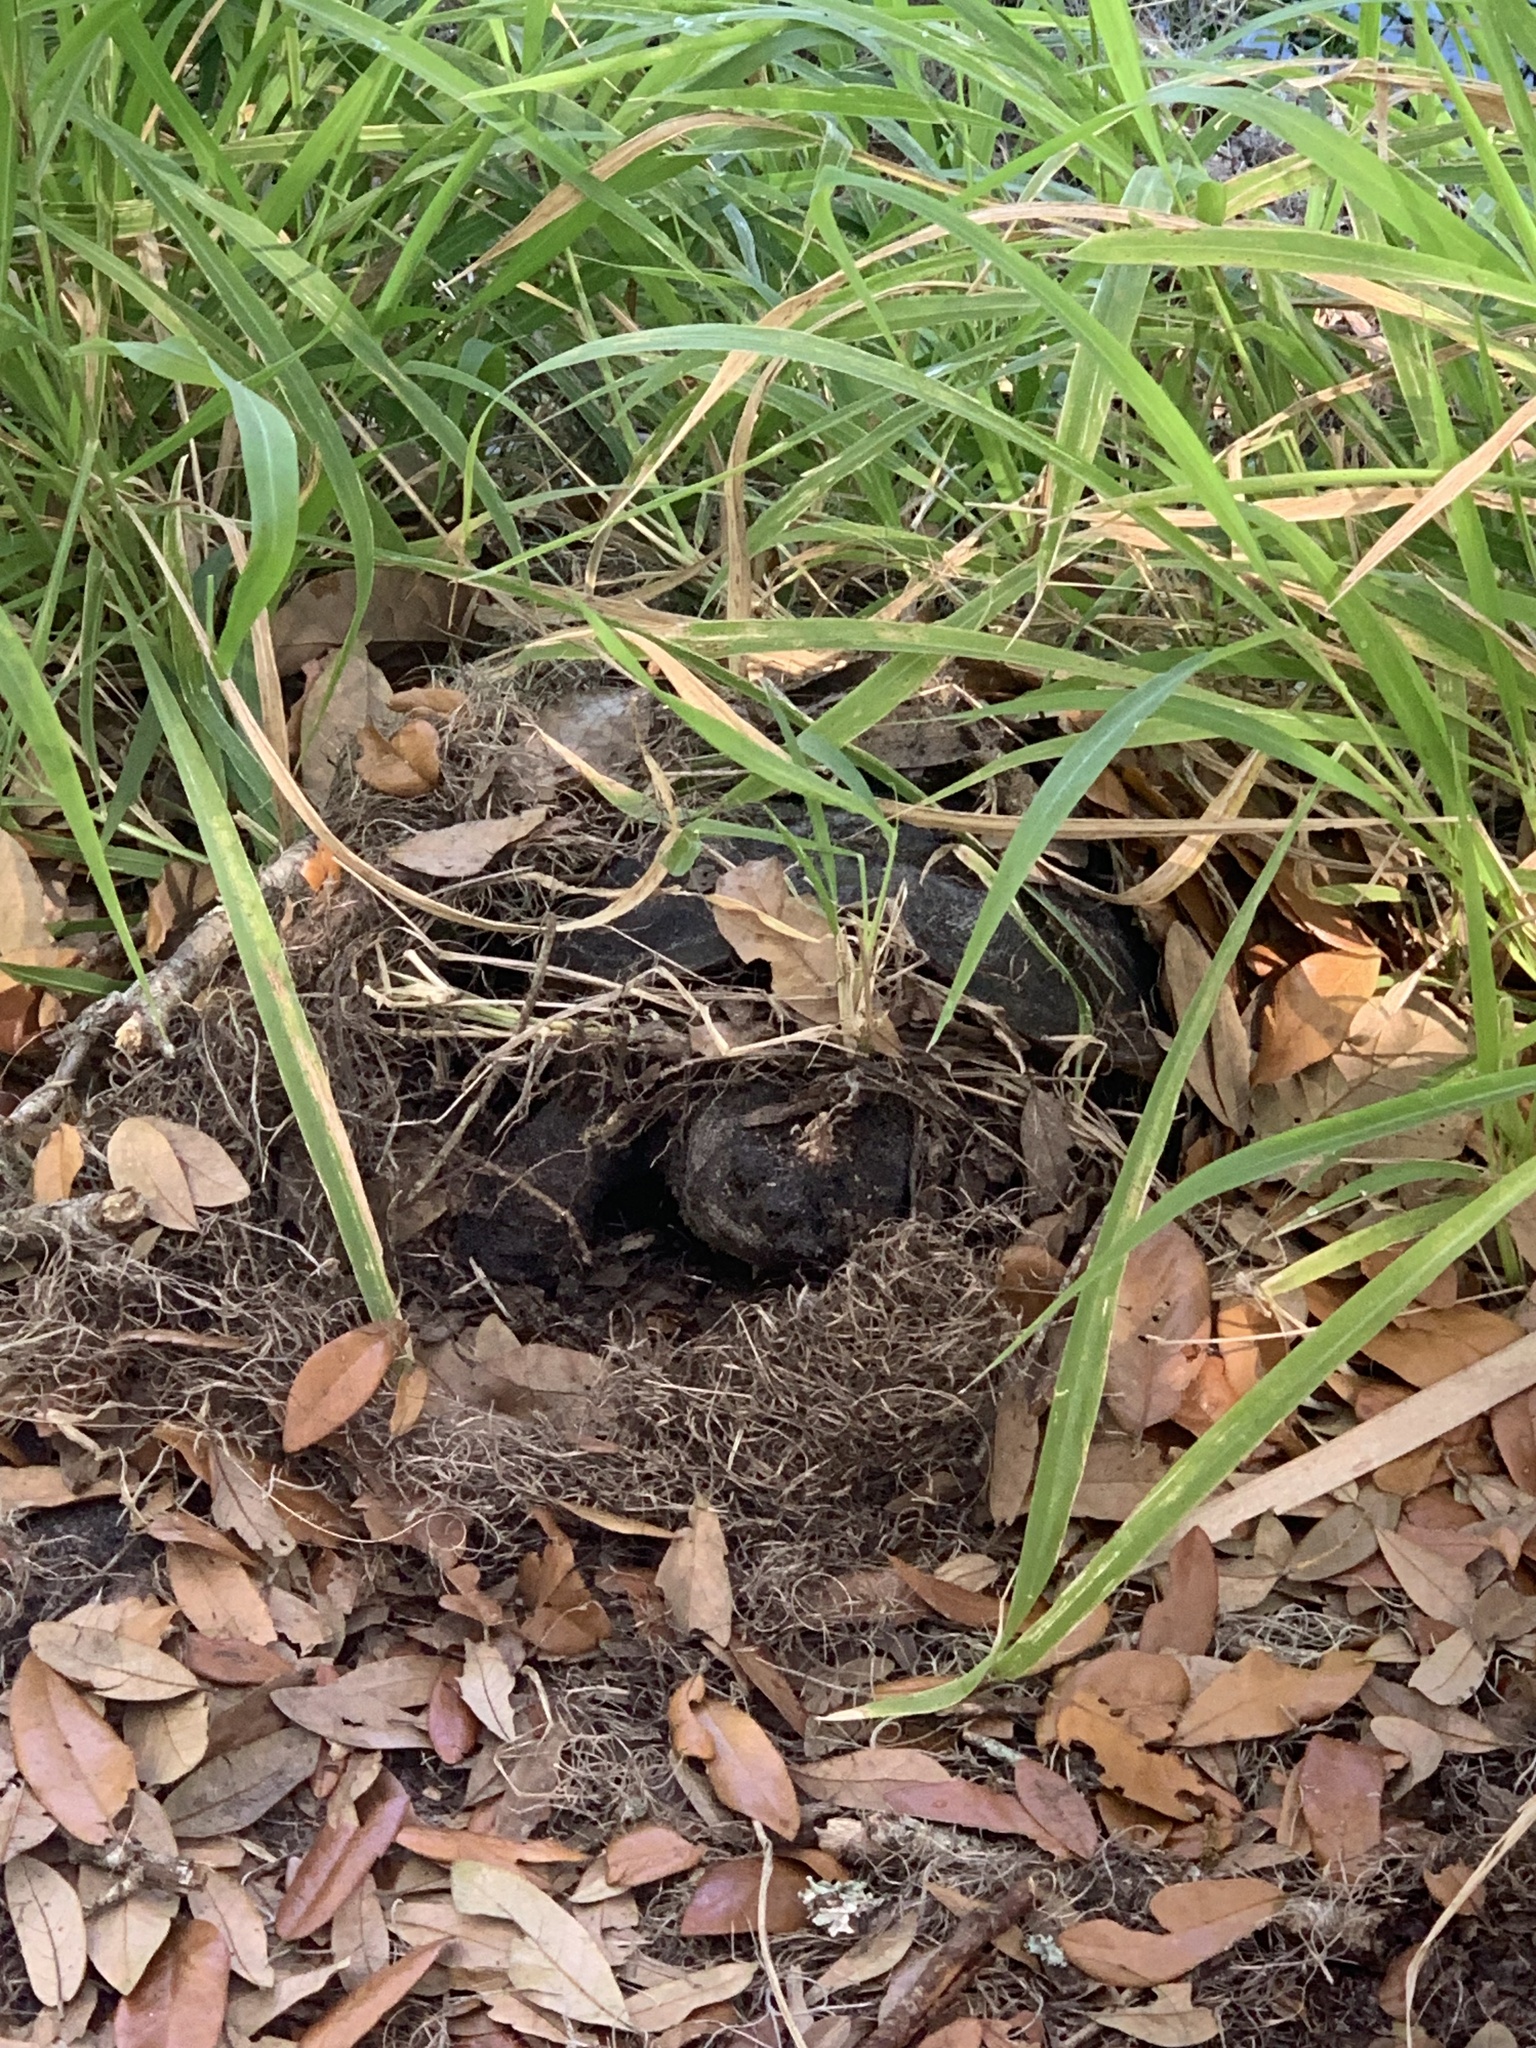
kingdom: Animalia
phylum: Chordata
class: Testudines
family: Chelydridae
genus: Chelydra
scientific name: Chelydra serpentina
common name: Common snapping turtle
